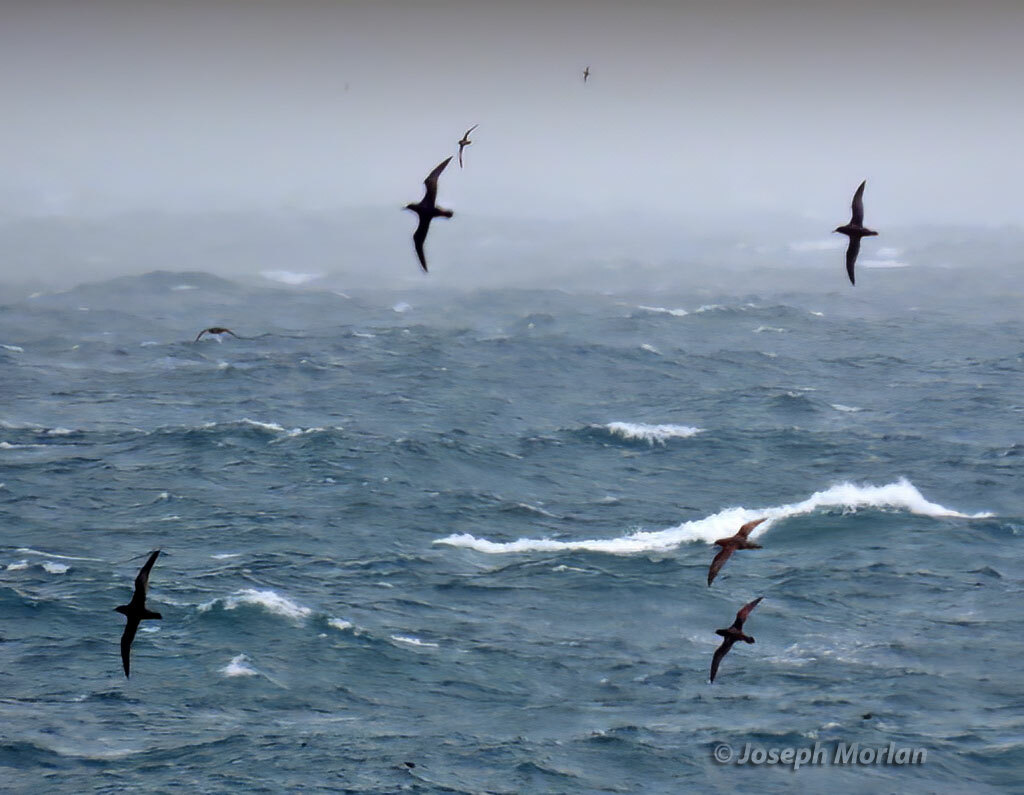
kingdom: Animalia
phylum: Chordata
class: Aves
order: Procellariiformes
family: Procellariidae
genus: Puffinus
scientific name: Puffinus griseus
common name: Sooty shearwater
